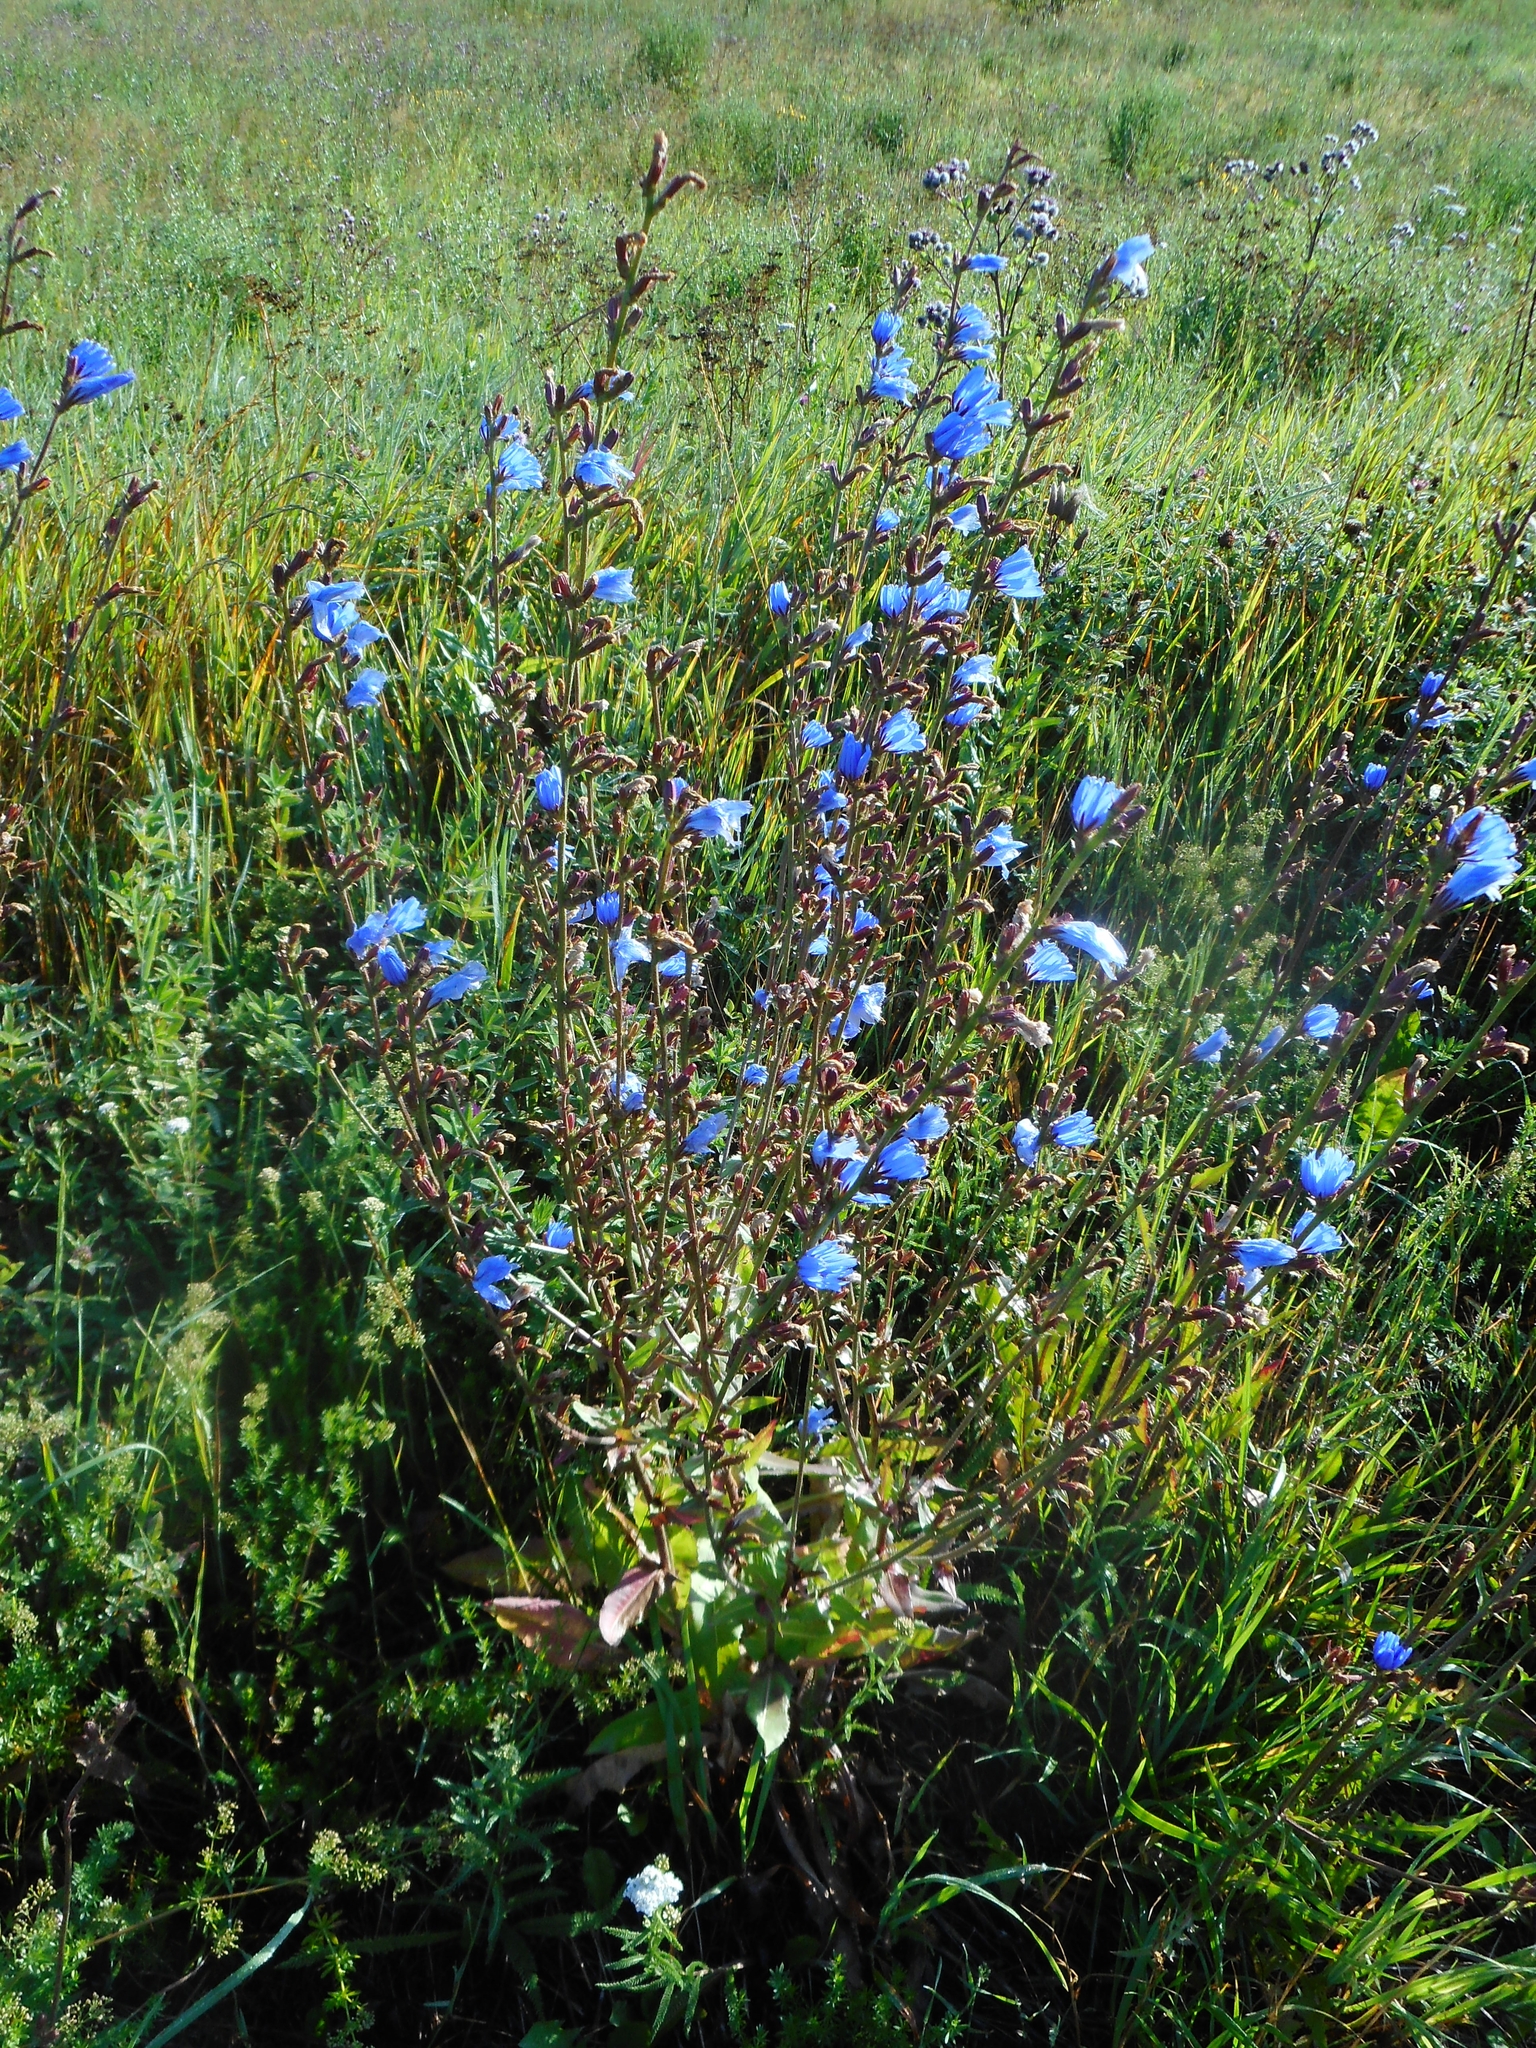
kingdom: Plantae
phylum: Tracheophyta
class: Magnoliopsida
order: Asterales
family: Asteraceae
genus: Cichorium
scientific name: Cichorium intybus
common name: Chicory
